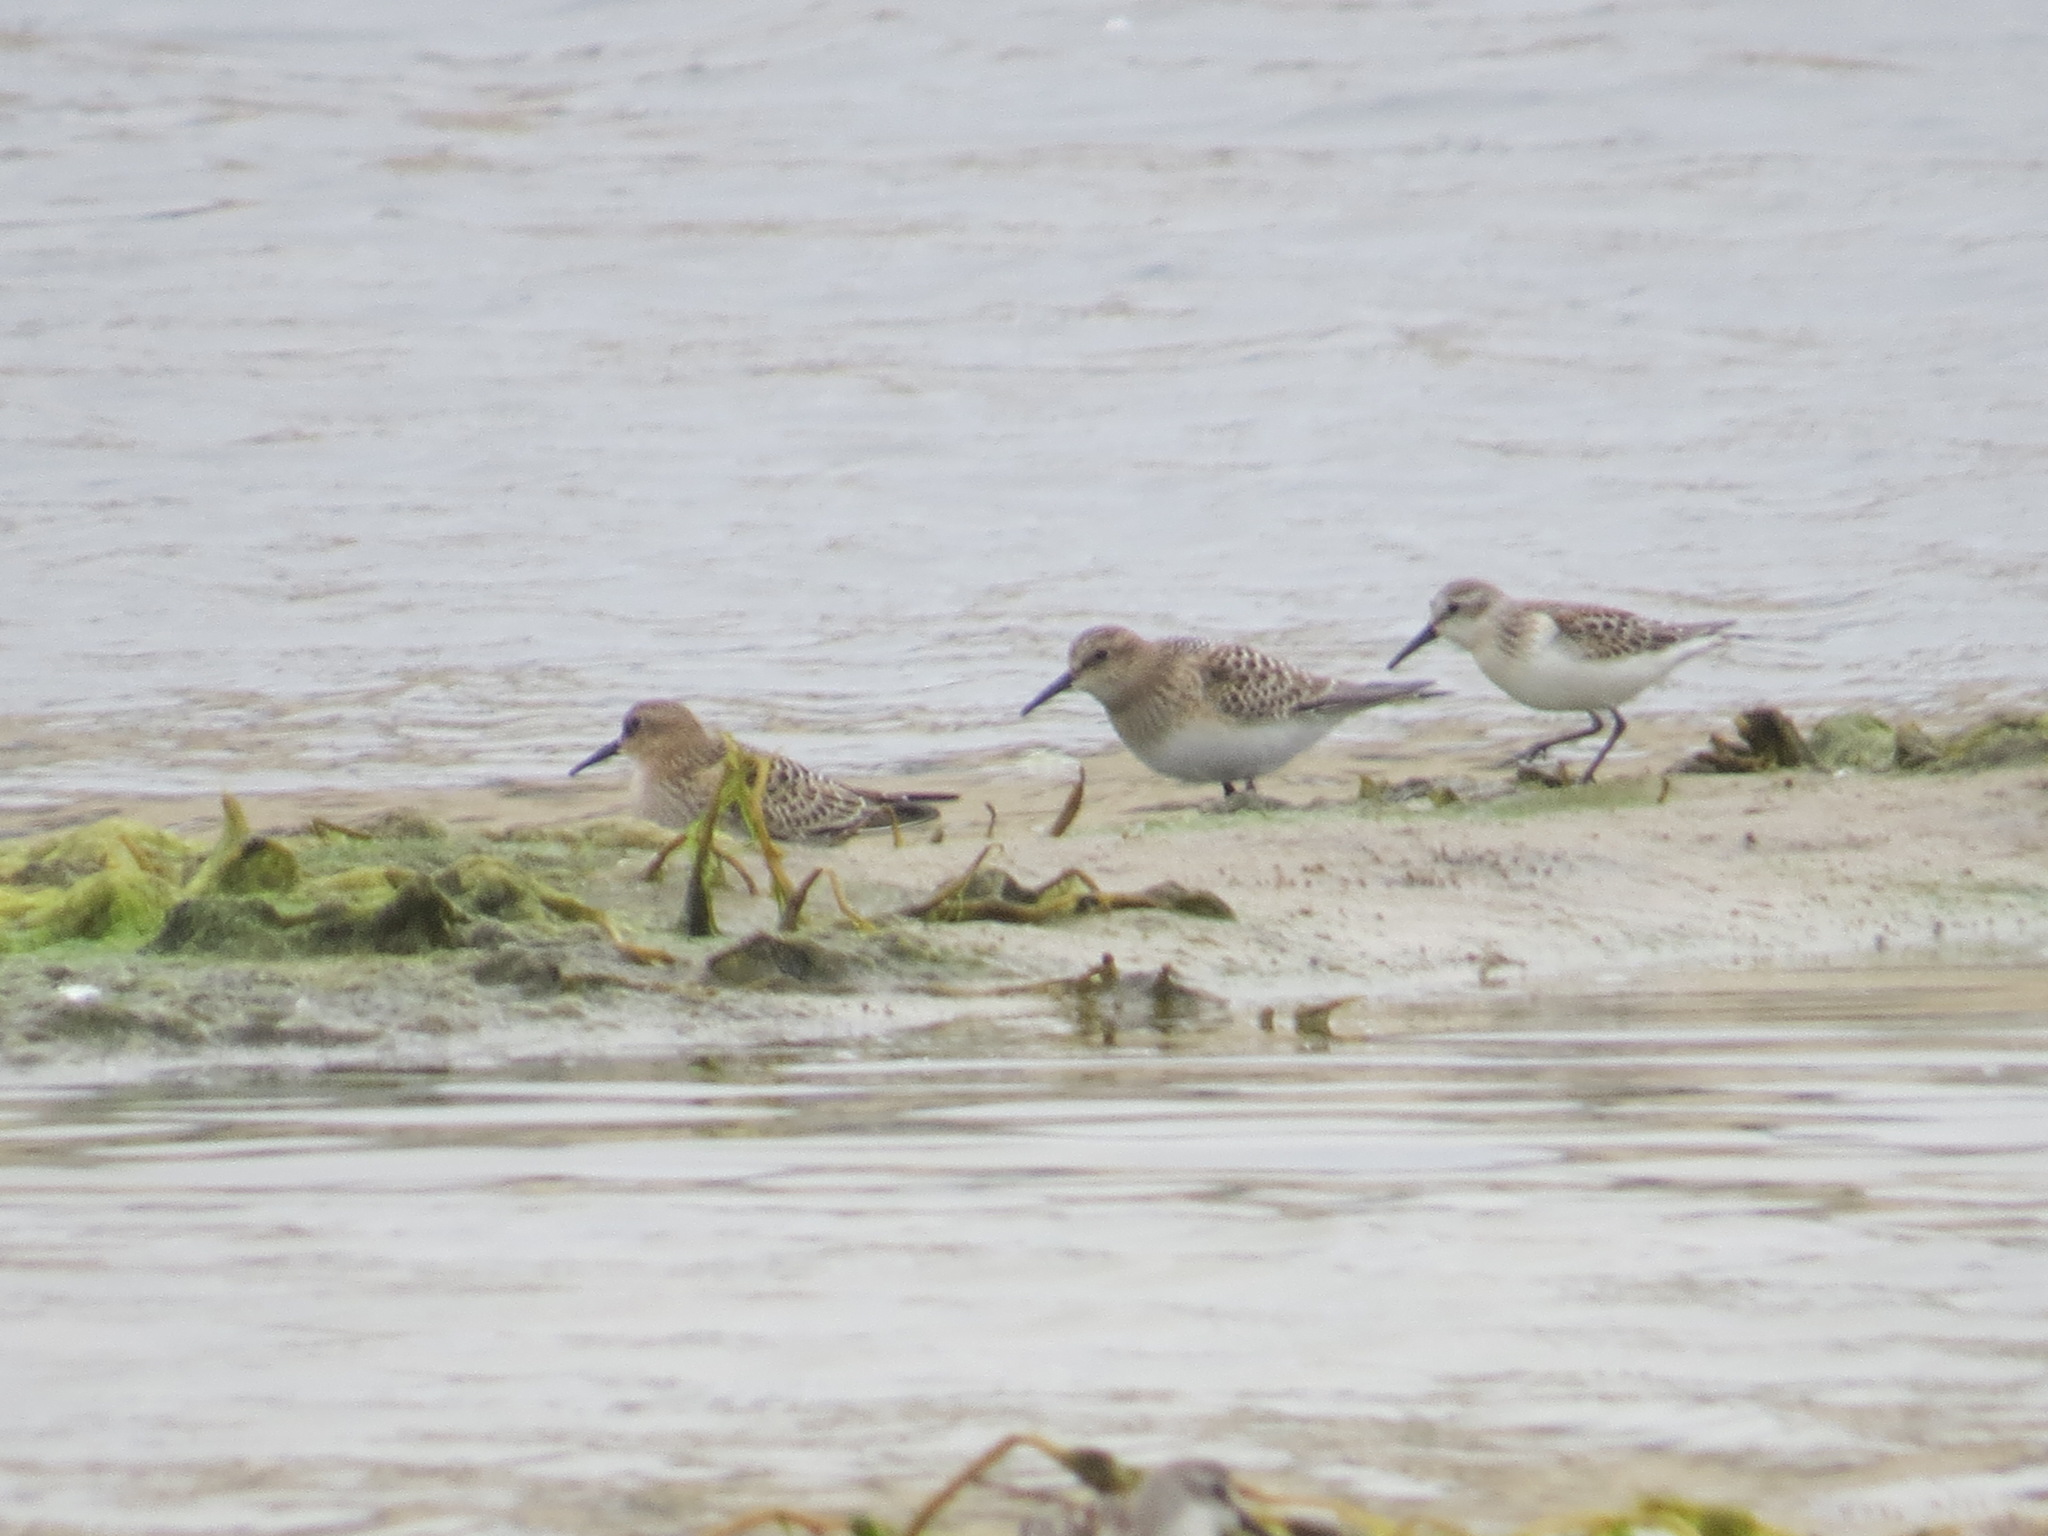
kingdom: Animalia
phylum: Chordata
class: Aves
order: Charadriiformes
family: Scolopacidae
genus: Calidris
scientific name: Calidris bairdii
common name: Baird's sandpiper
